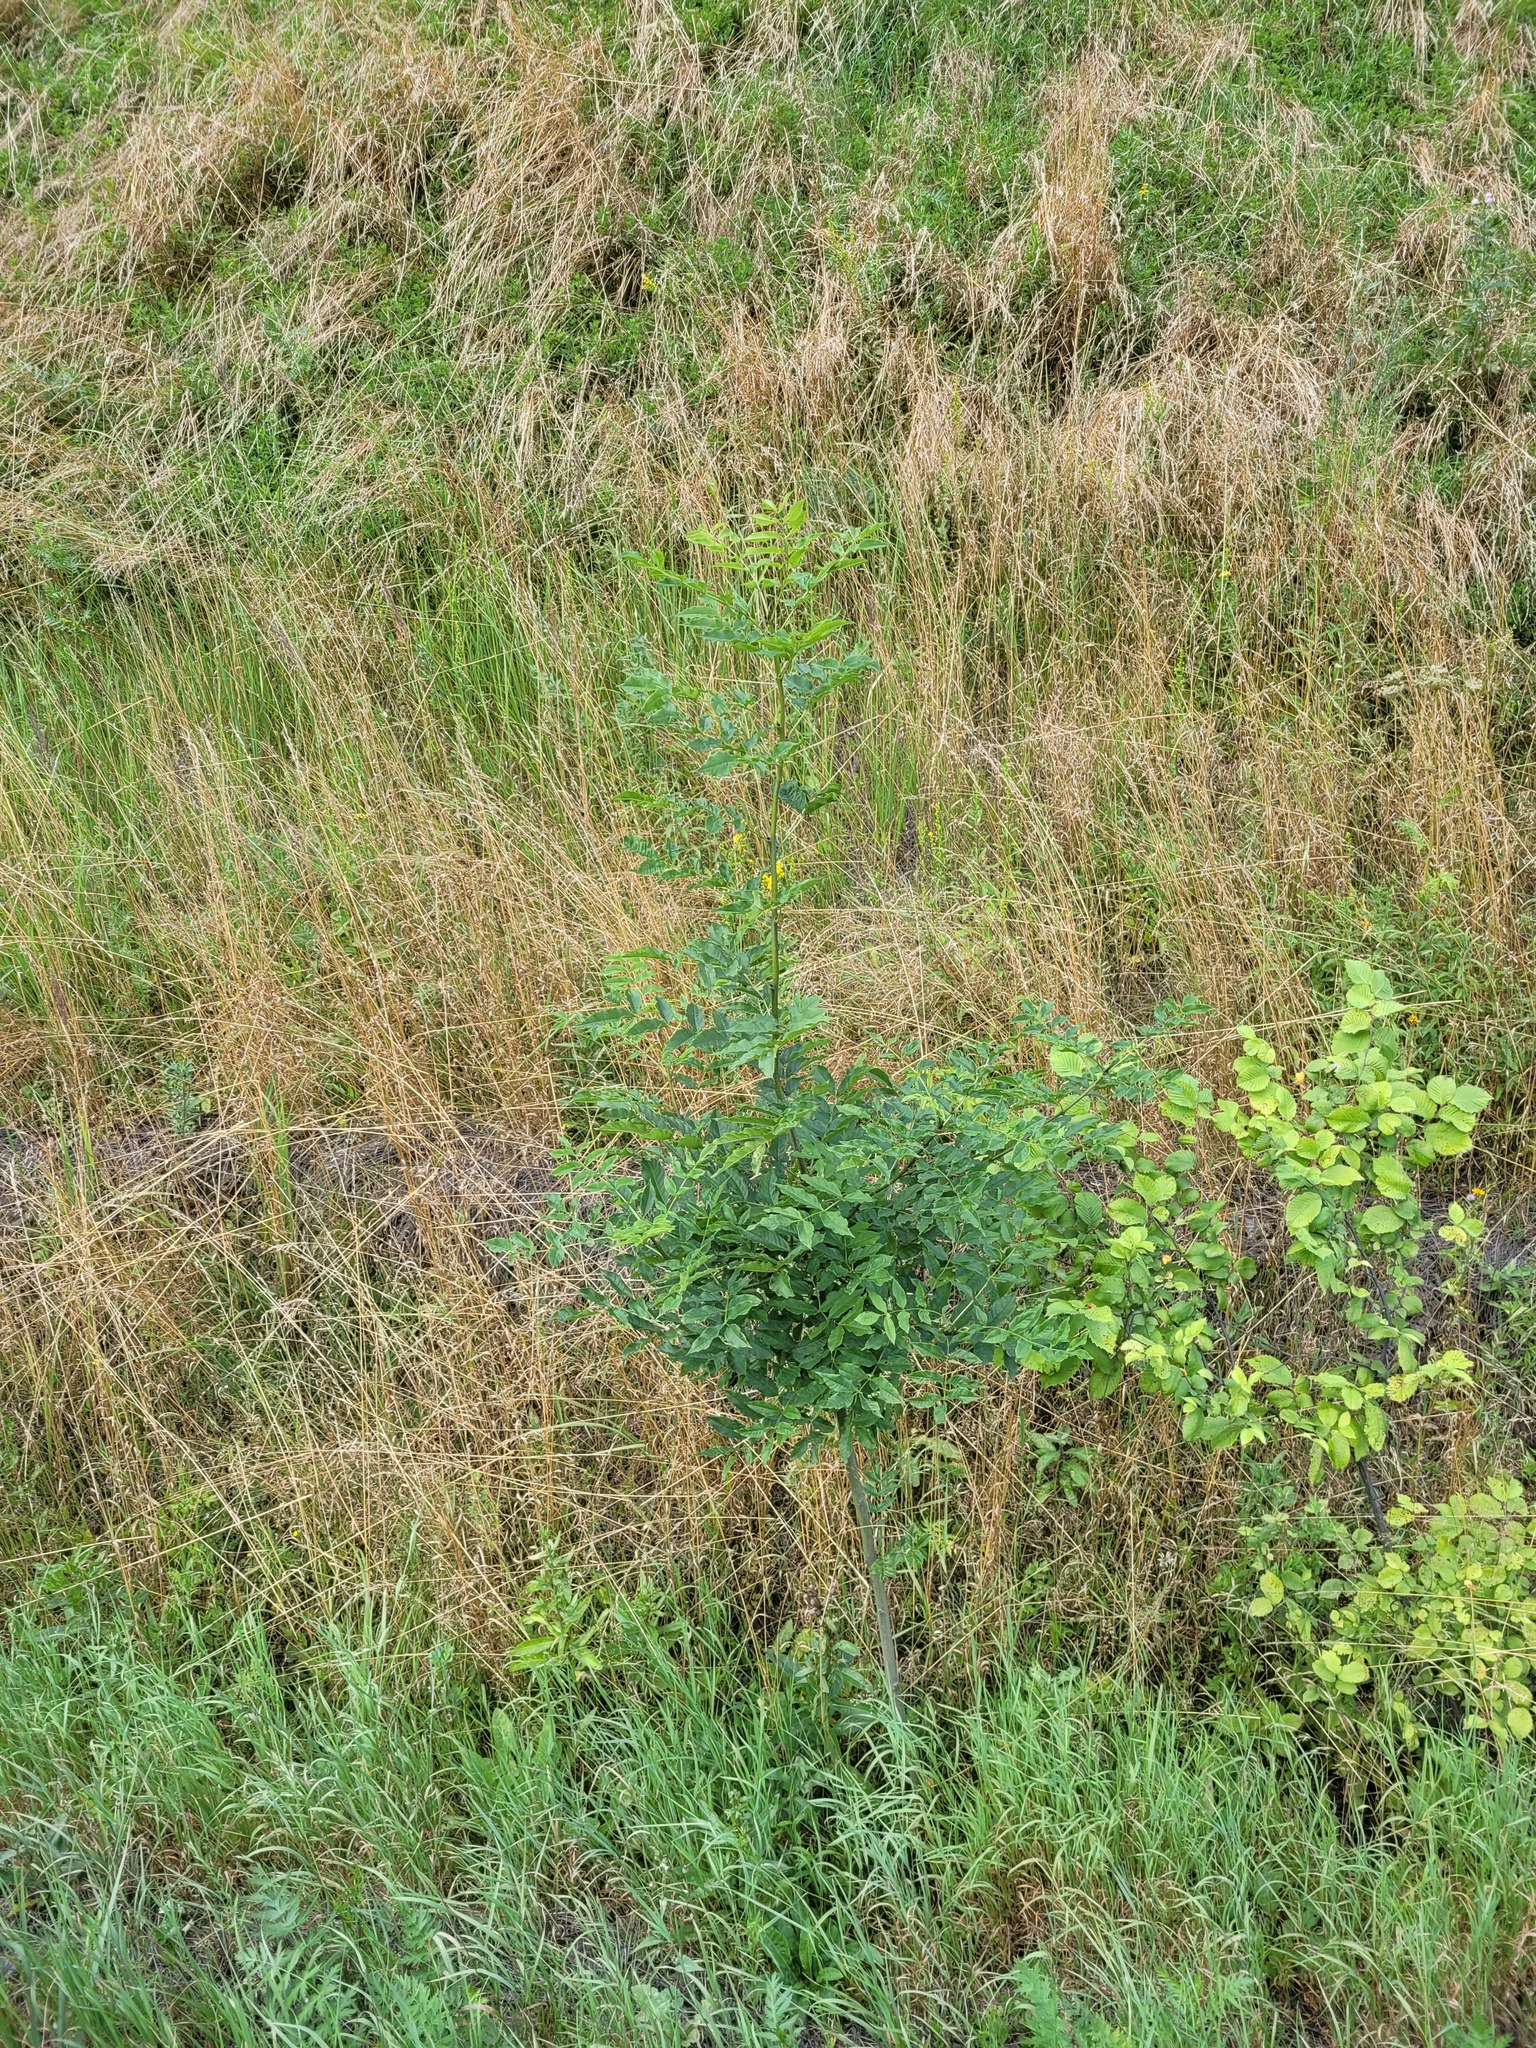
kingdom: Plantae
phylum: Tracheophyta
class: Magnoliopsida
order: Lamiales
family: Oleaceae
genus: Fraxinus
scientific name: Fraxinus excelsior
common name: European ash
